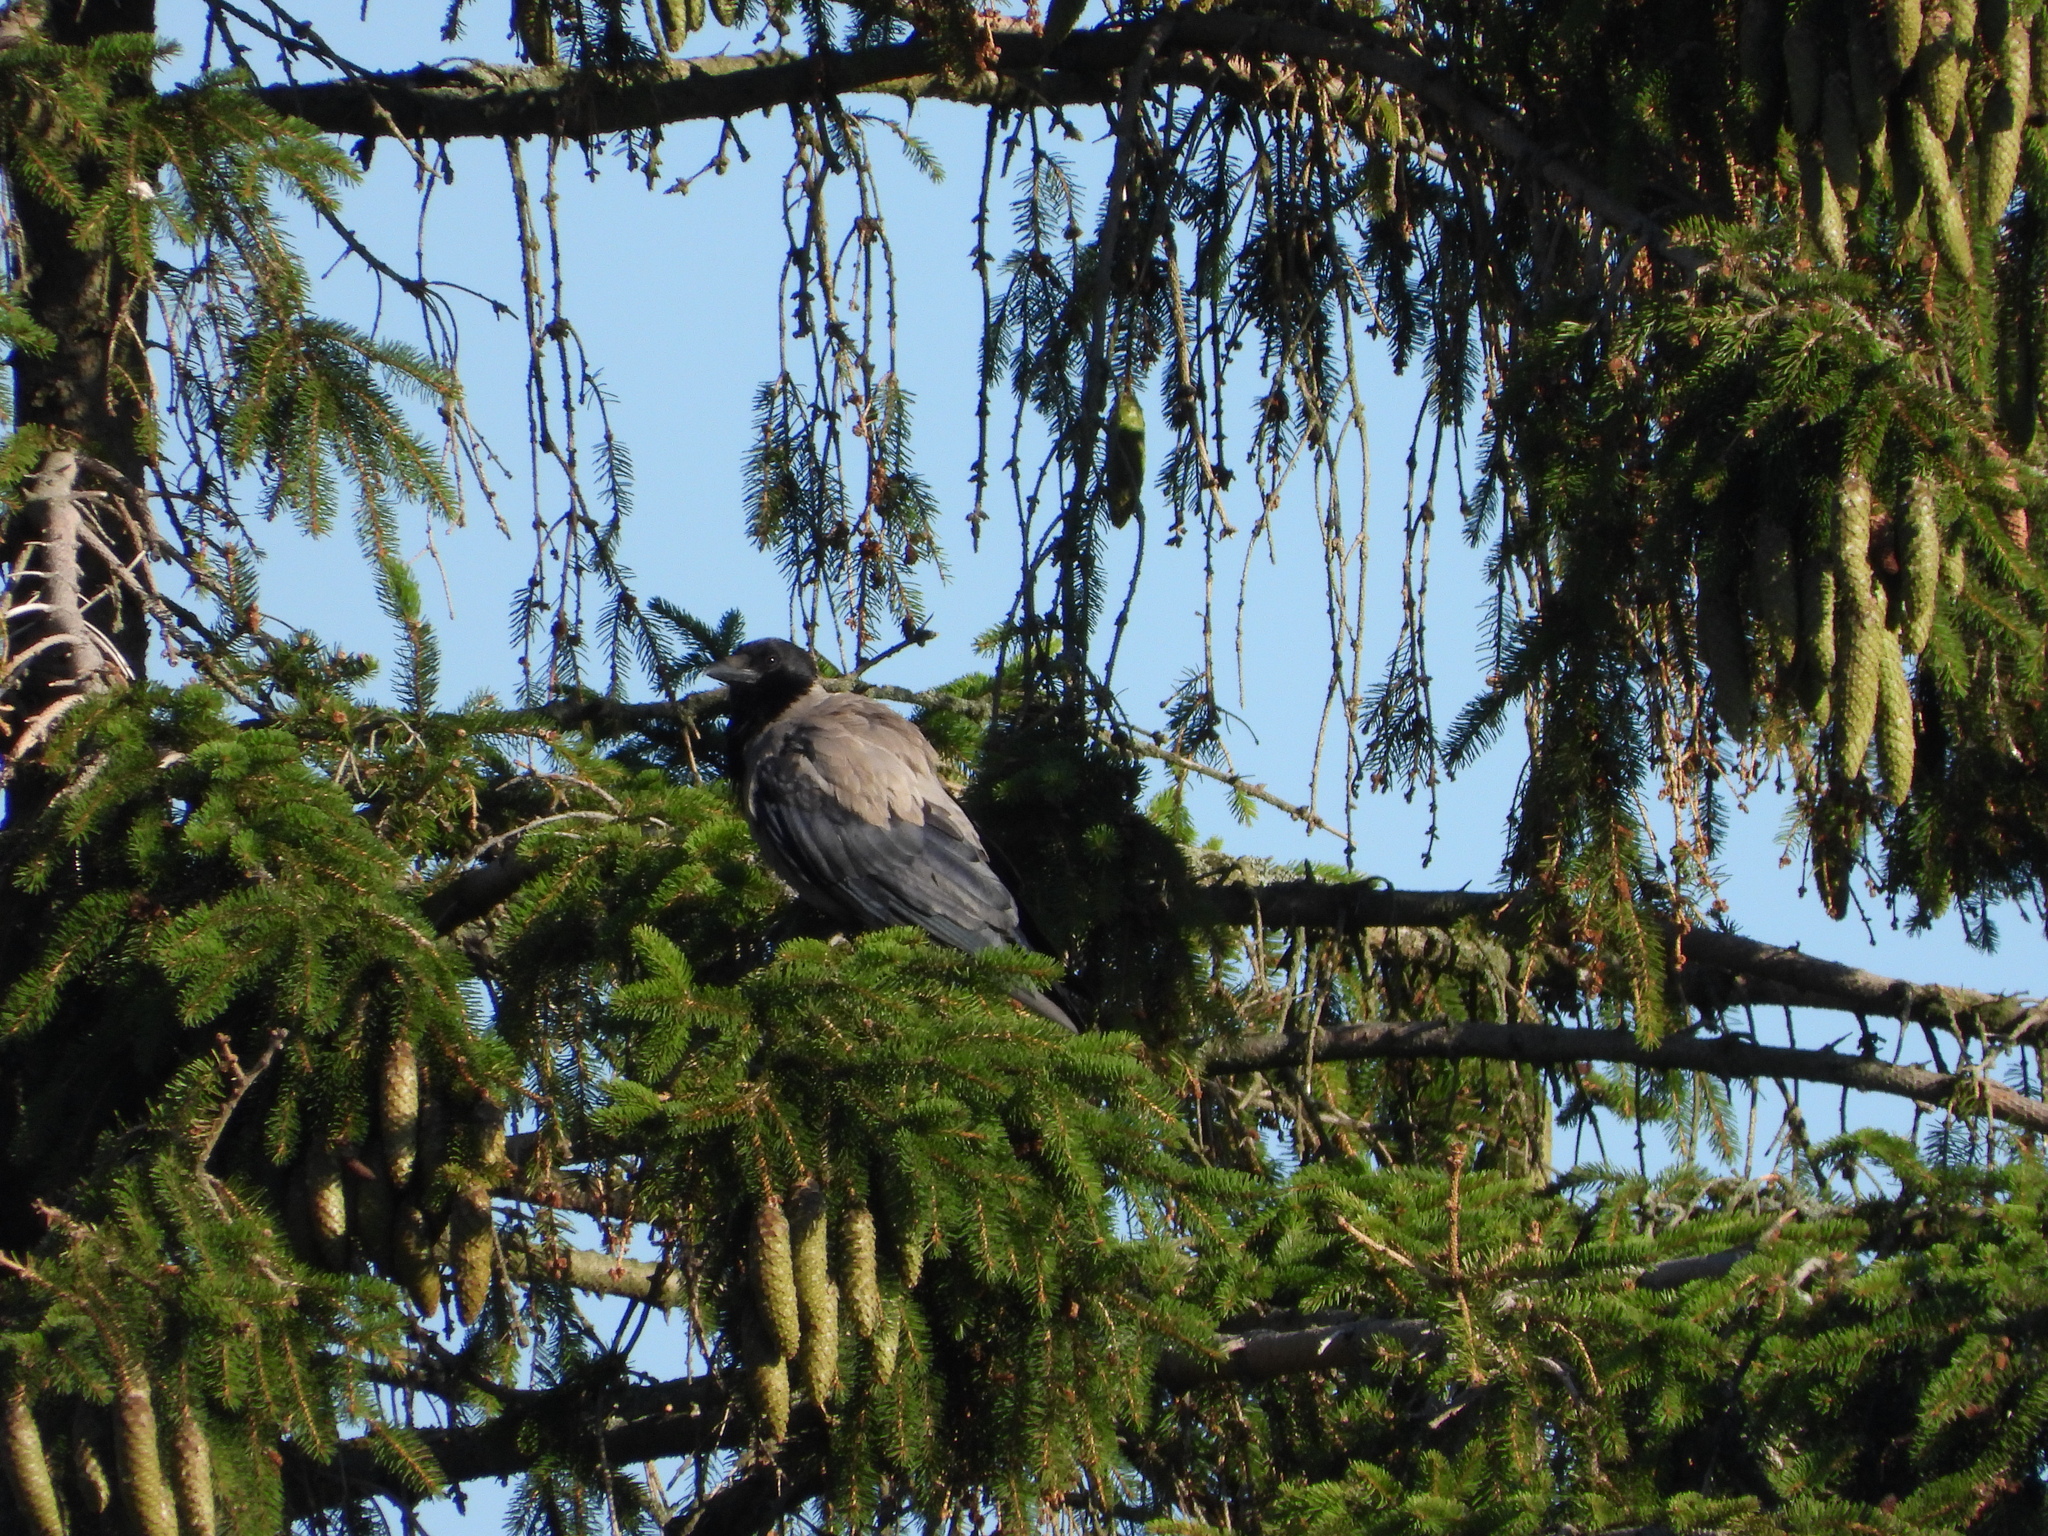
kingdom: Animalia
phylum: Chordata
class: Aves
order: Passeriformes
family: Corvidae
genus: Corvus
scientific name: Corvus cornix
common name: Hooded crow
